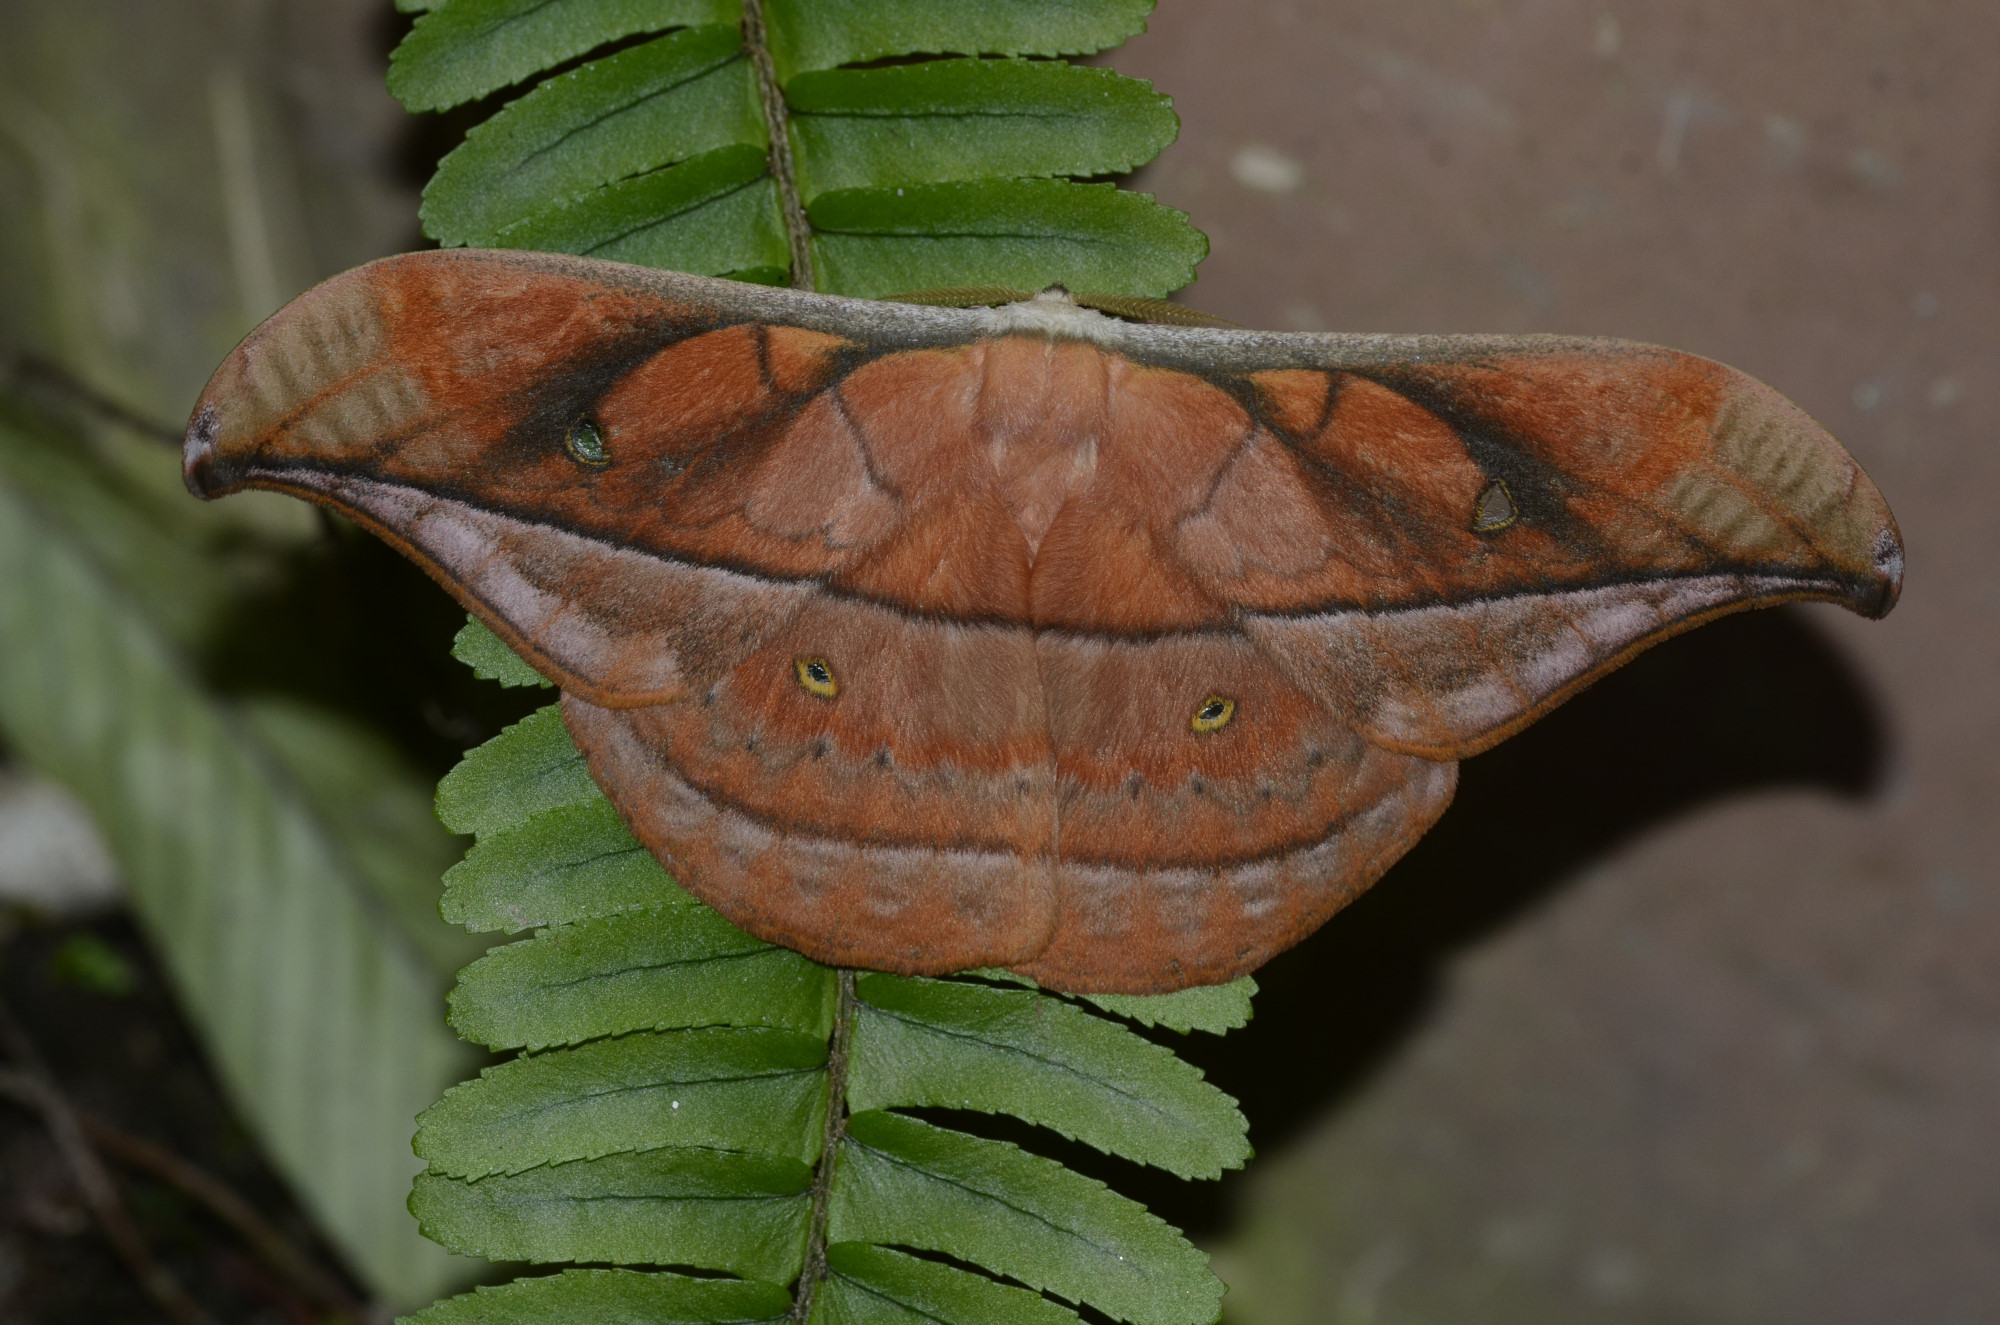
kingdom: Animalia
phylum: Arthropoda
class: Insecta
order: Lepidoptera
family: Saturniidae
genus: Copaxa
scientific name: Copaxa decrescens
